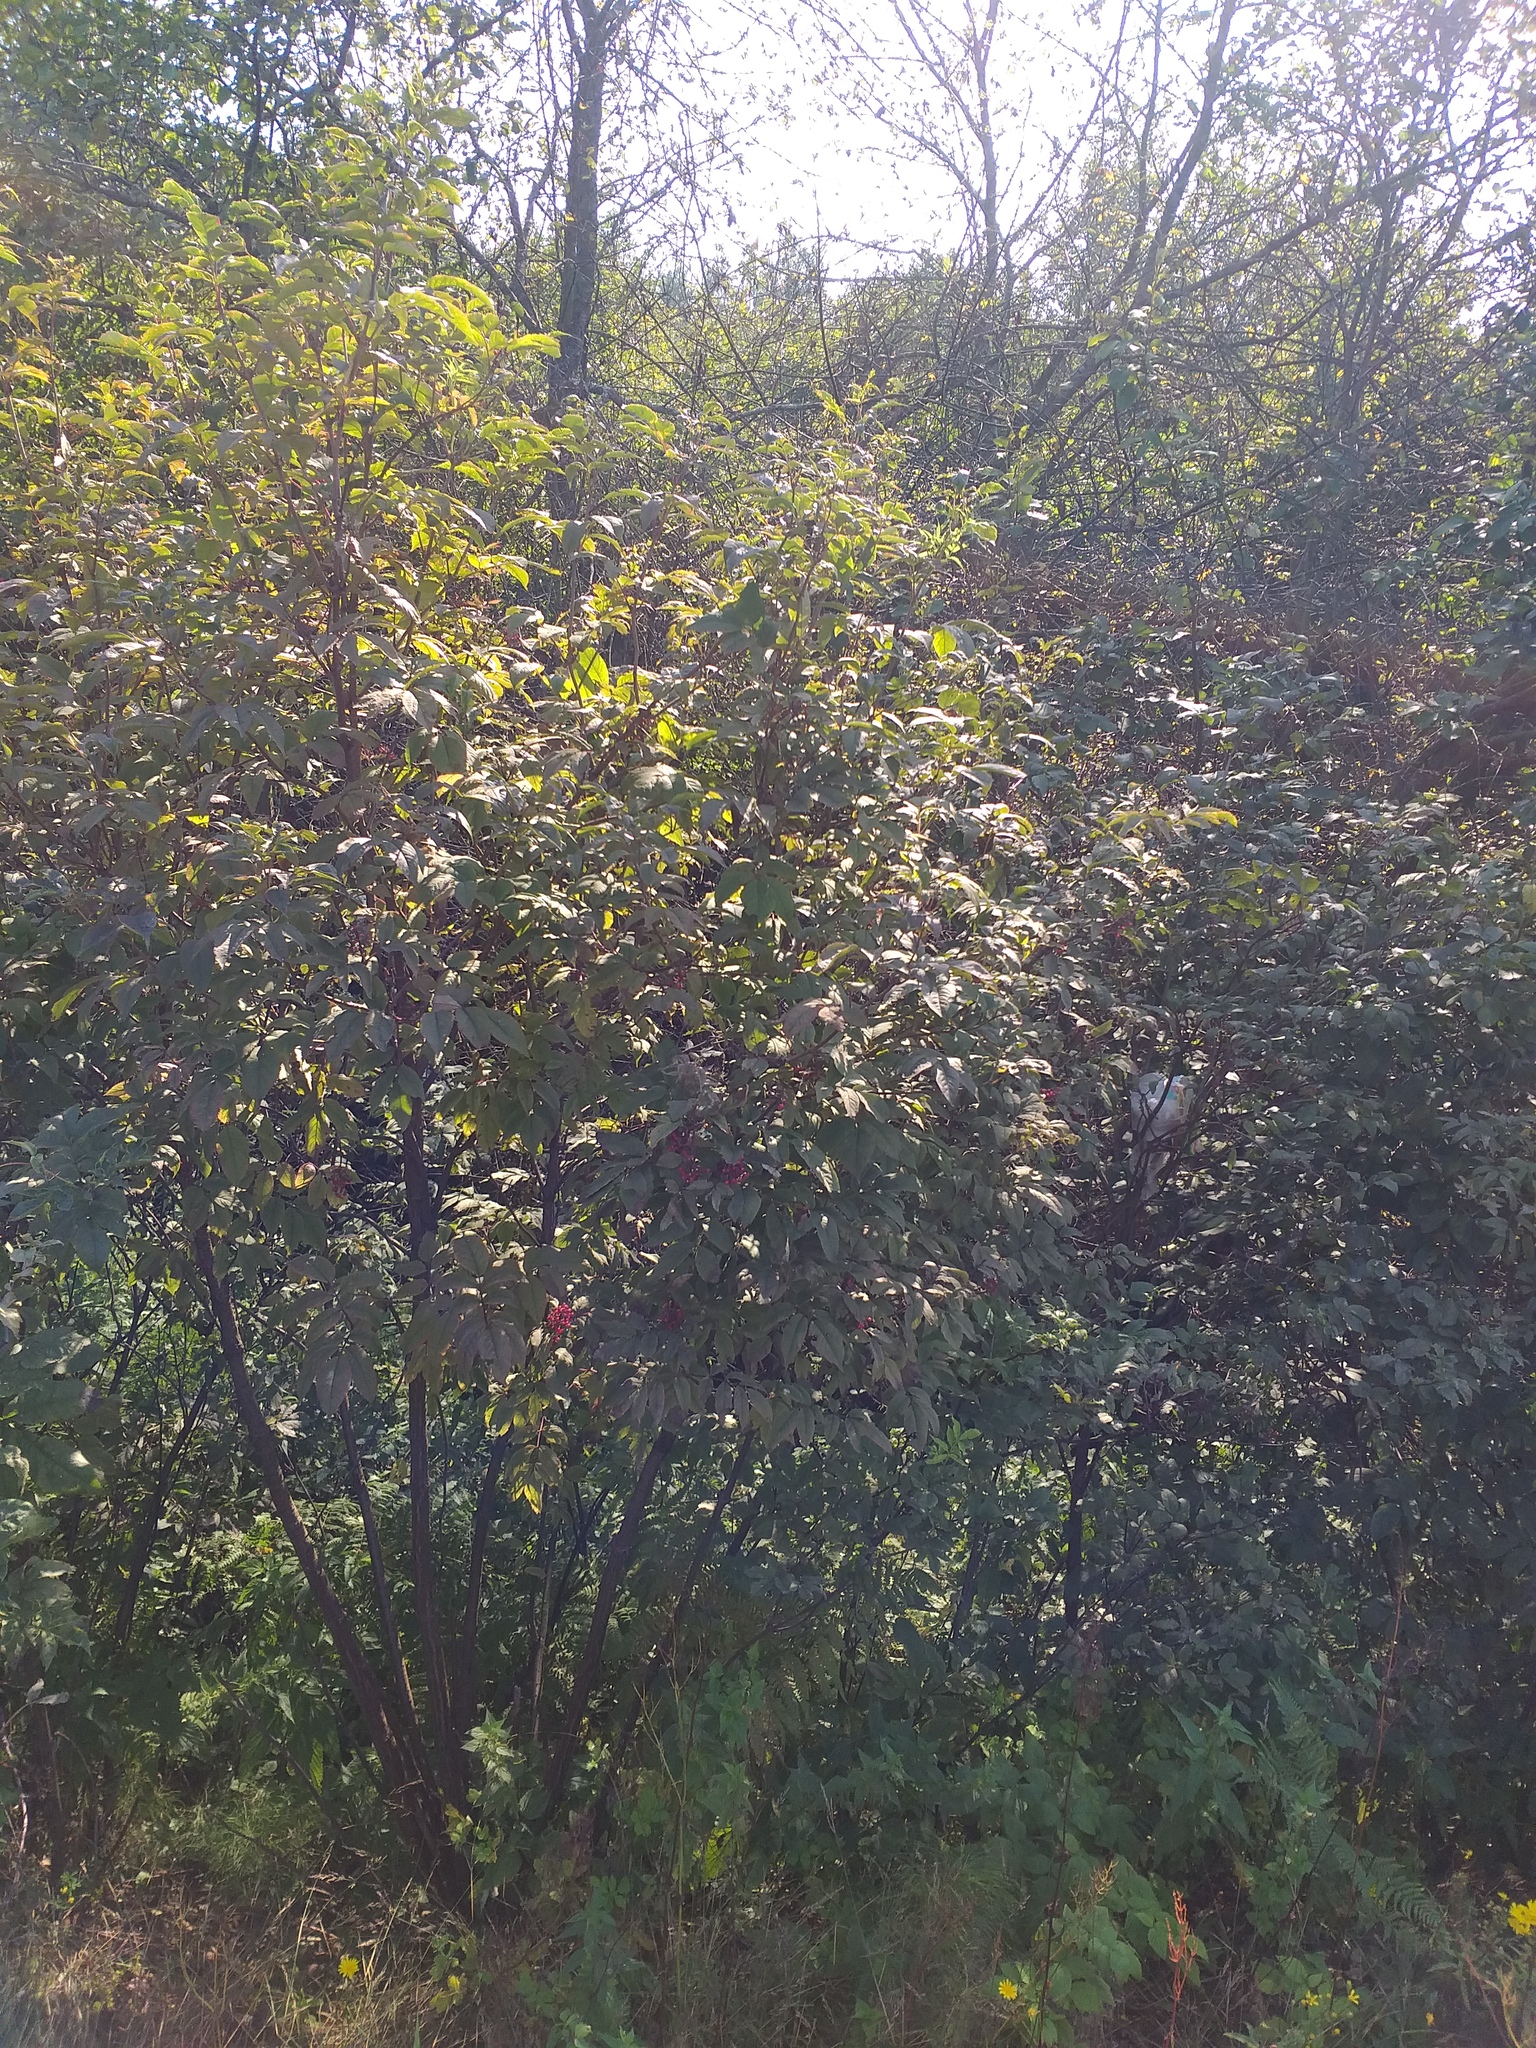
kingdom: Plantae
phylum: Tracheophyta
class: Magnoliopsida
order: Dipsacales
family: Viburnaceae
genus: Sambucus
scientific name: Sambucus racemosa
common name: Red-berried elder
